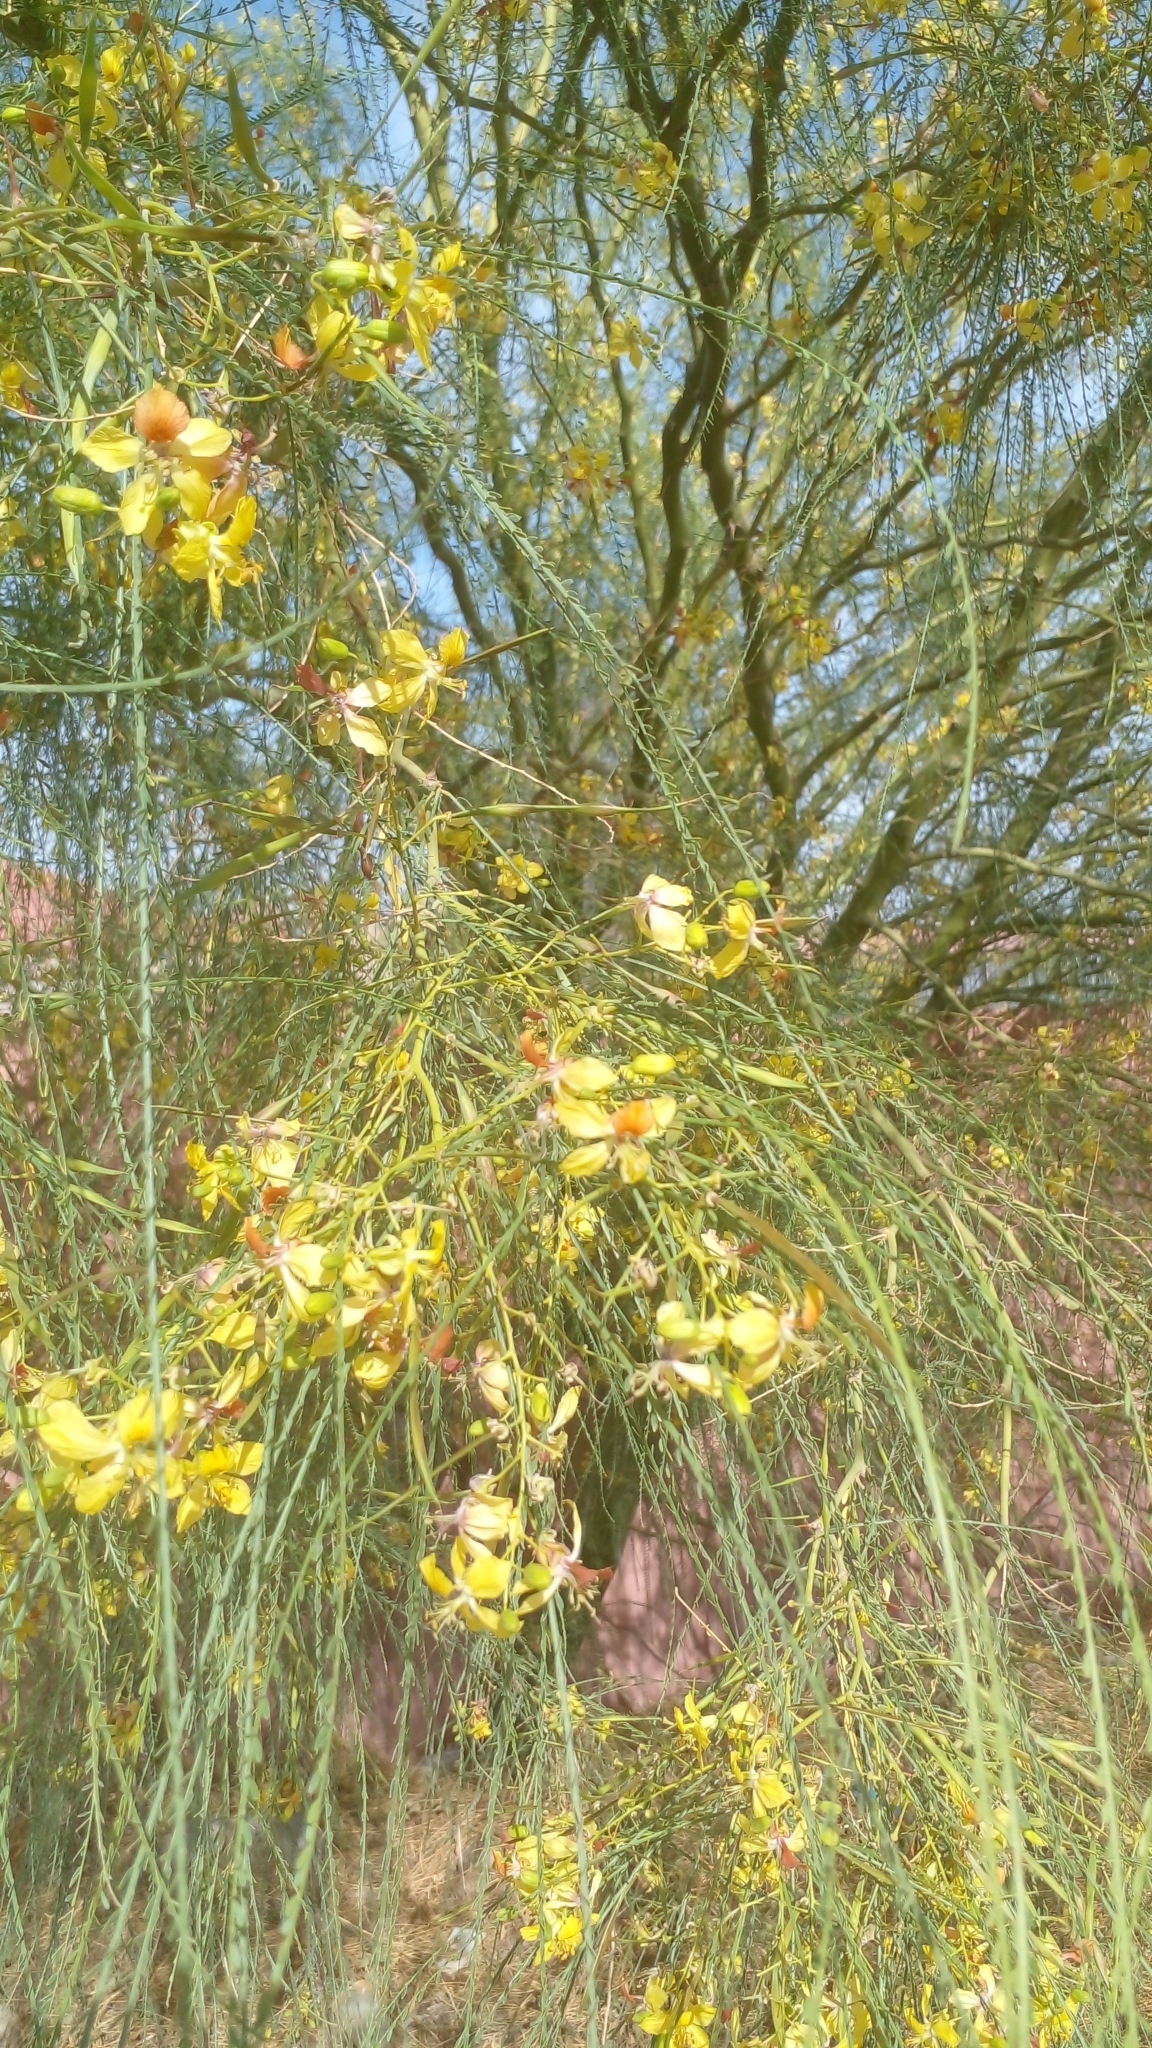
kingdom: Plantae
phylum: Tracheophyta
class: Magnoliopsida
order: Fabales
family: Fabaceae
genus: Parkinsonia
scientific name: Parkinsonia aculeata
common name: Jerusalem thorn
